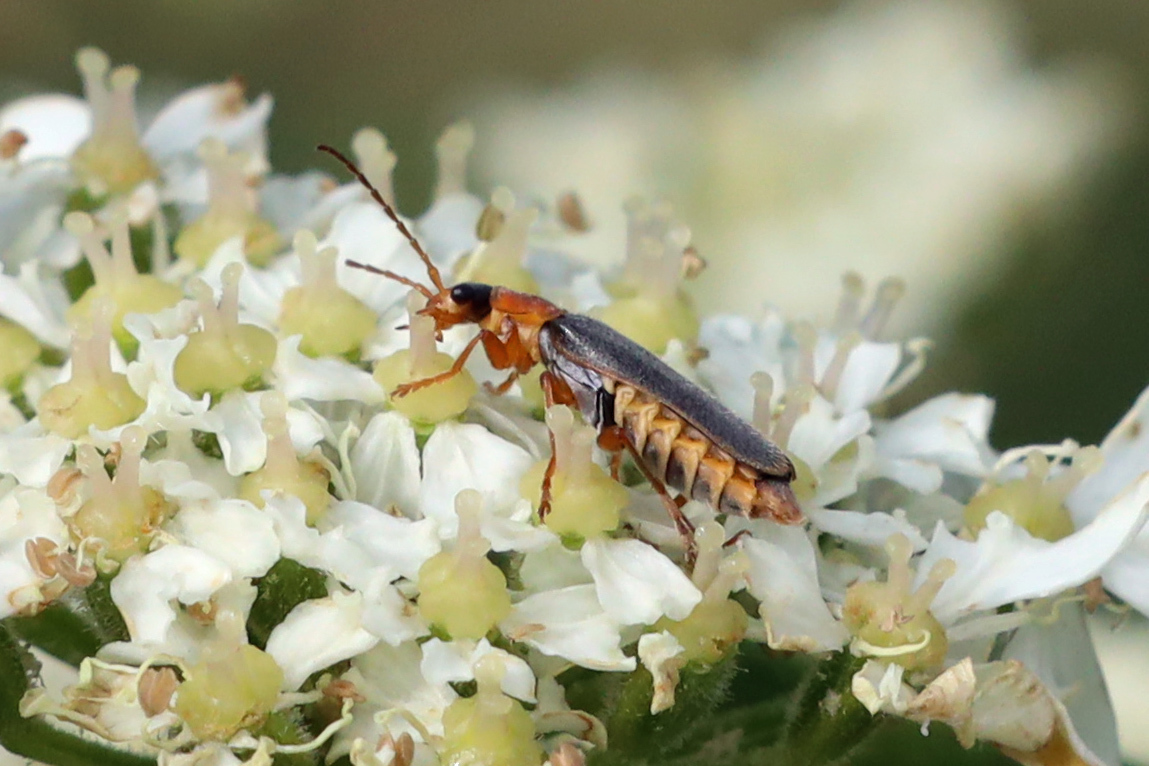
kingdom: Animalia
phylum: Arthropoda
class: Insecta
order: Coleoptera
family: Cantharidae
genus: Cantharis
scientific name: Cantharis lateralis
